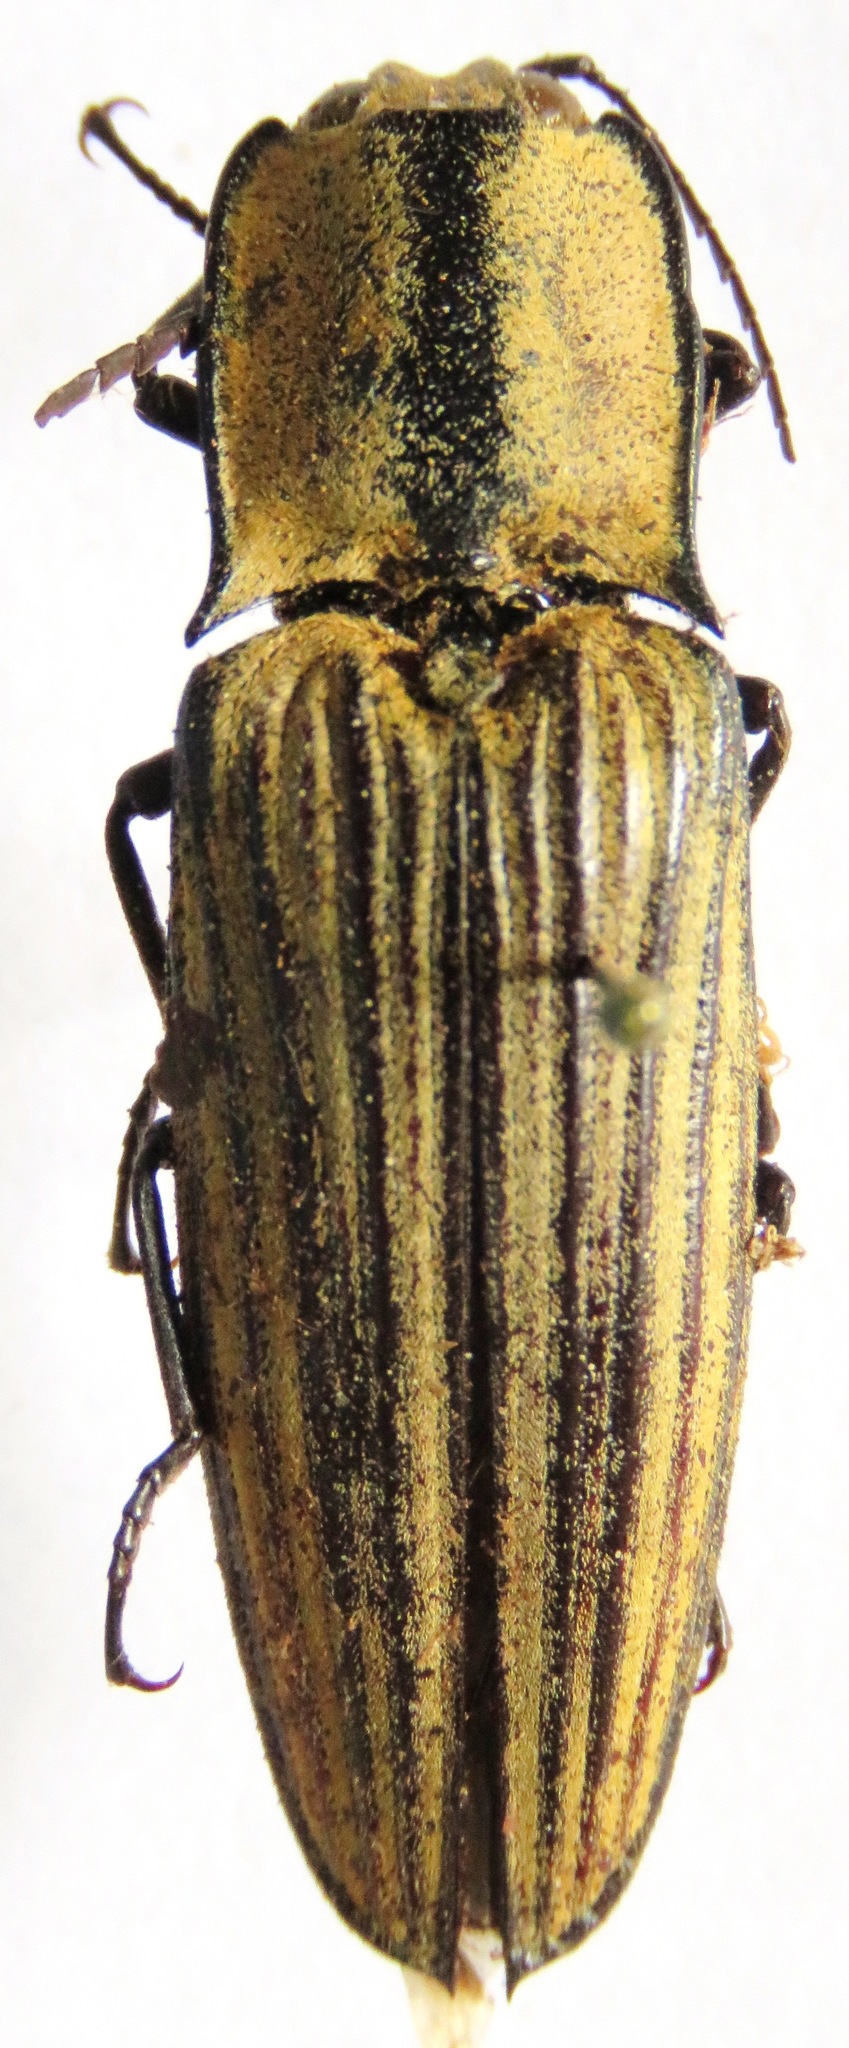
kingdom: Animalia
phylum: Arthropoda
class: Insecta
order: Coleoptera
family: Elateridae
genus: Alaus
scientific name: Alaus
